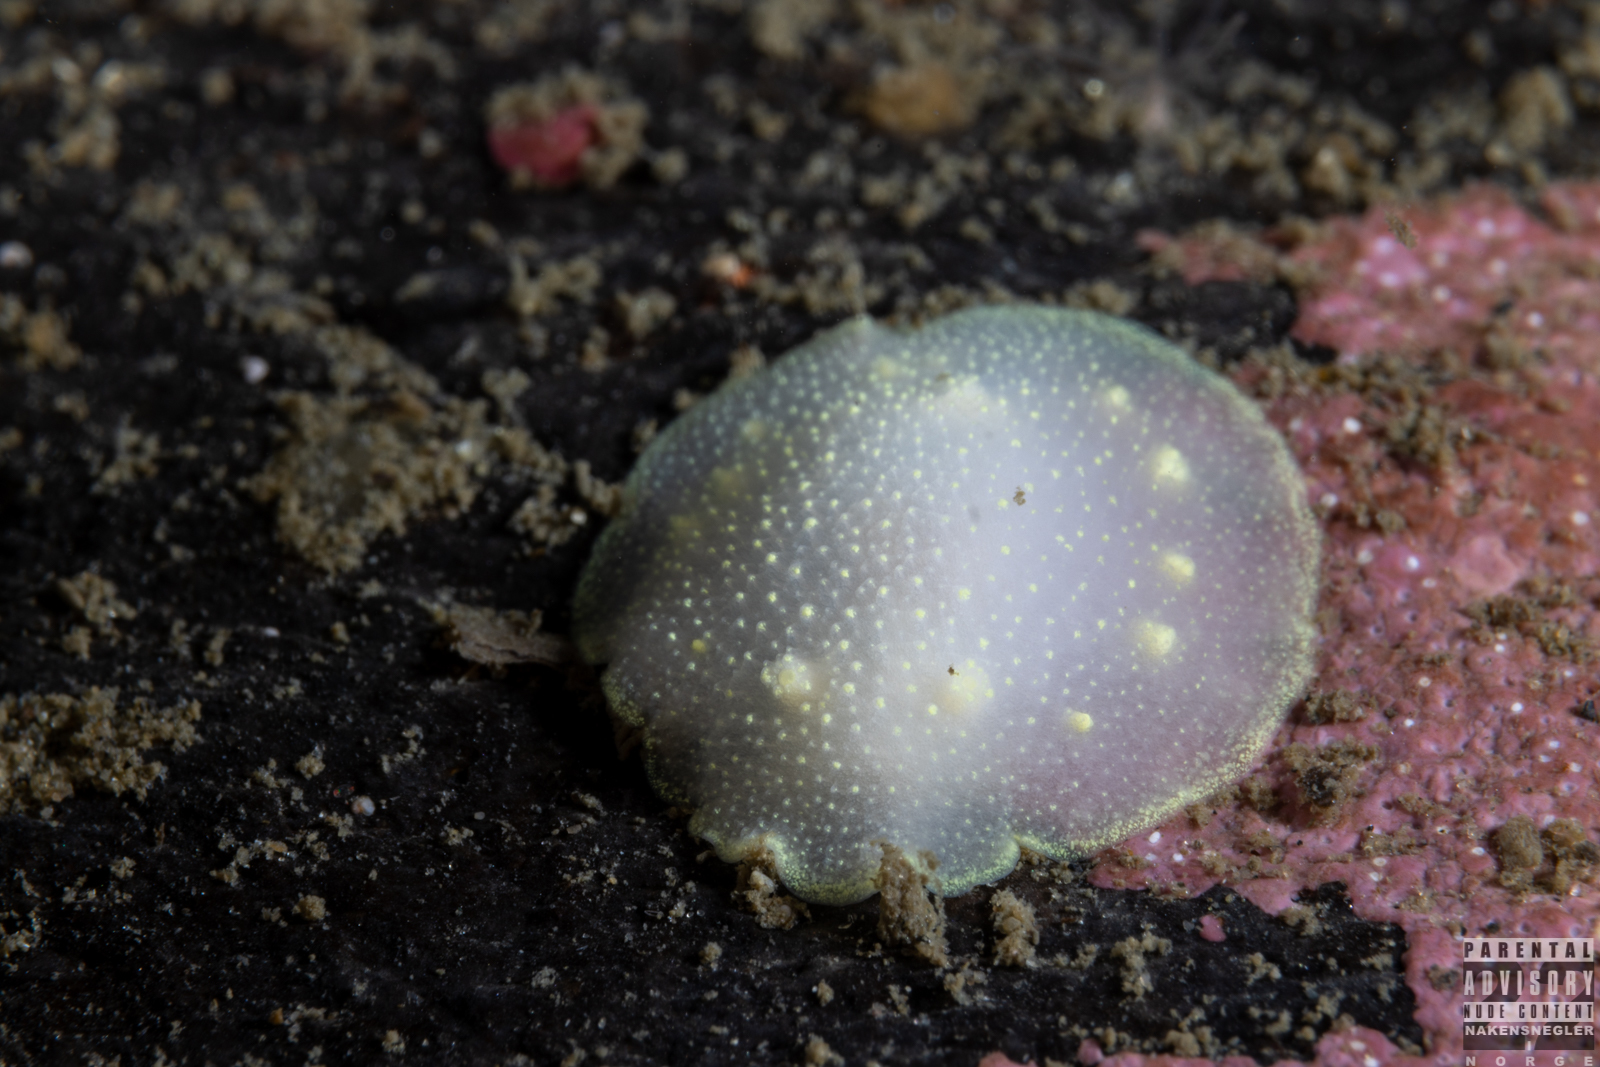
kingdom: Animalia
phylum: Mollusca
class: Gastropoda
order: Nudibranchia
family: Cadlinidae
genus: Cadlina
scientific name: Cadlina laevis
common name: White atlantic cadlina
